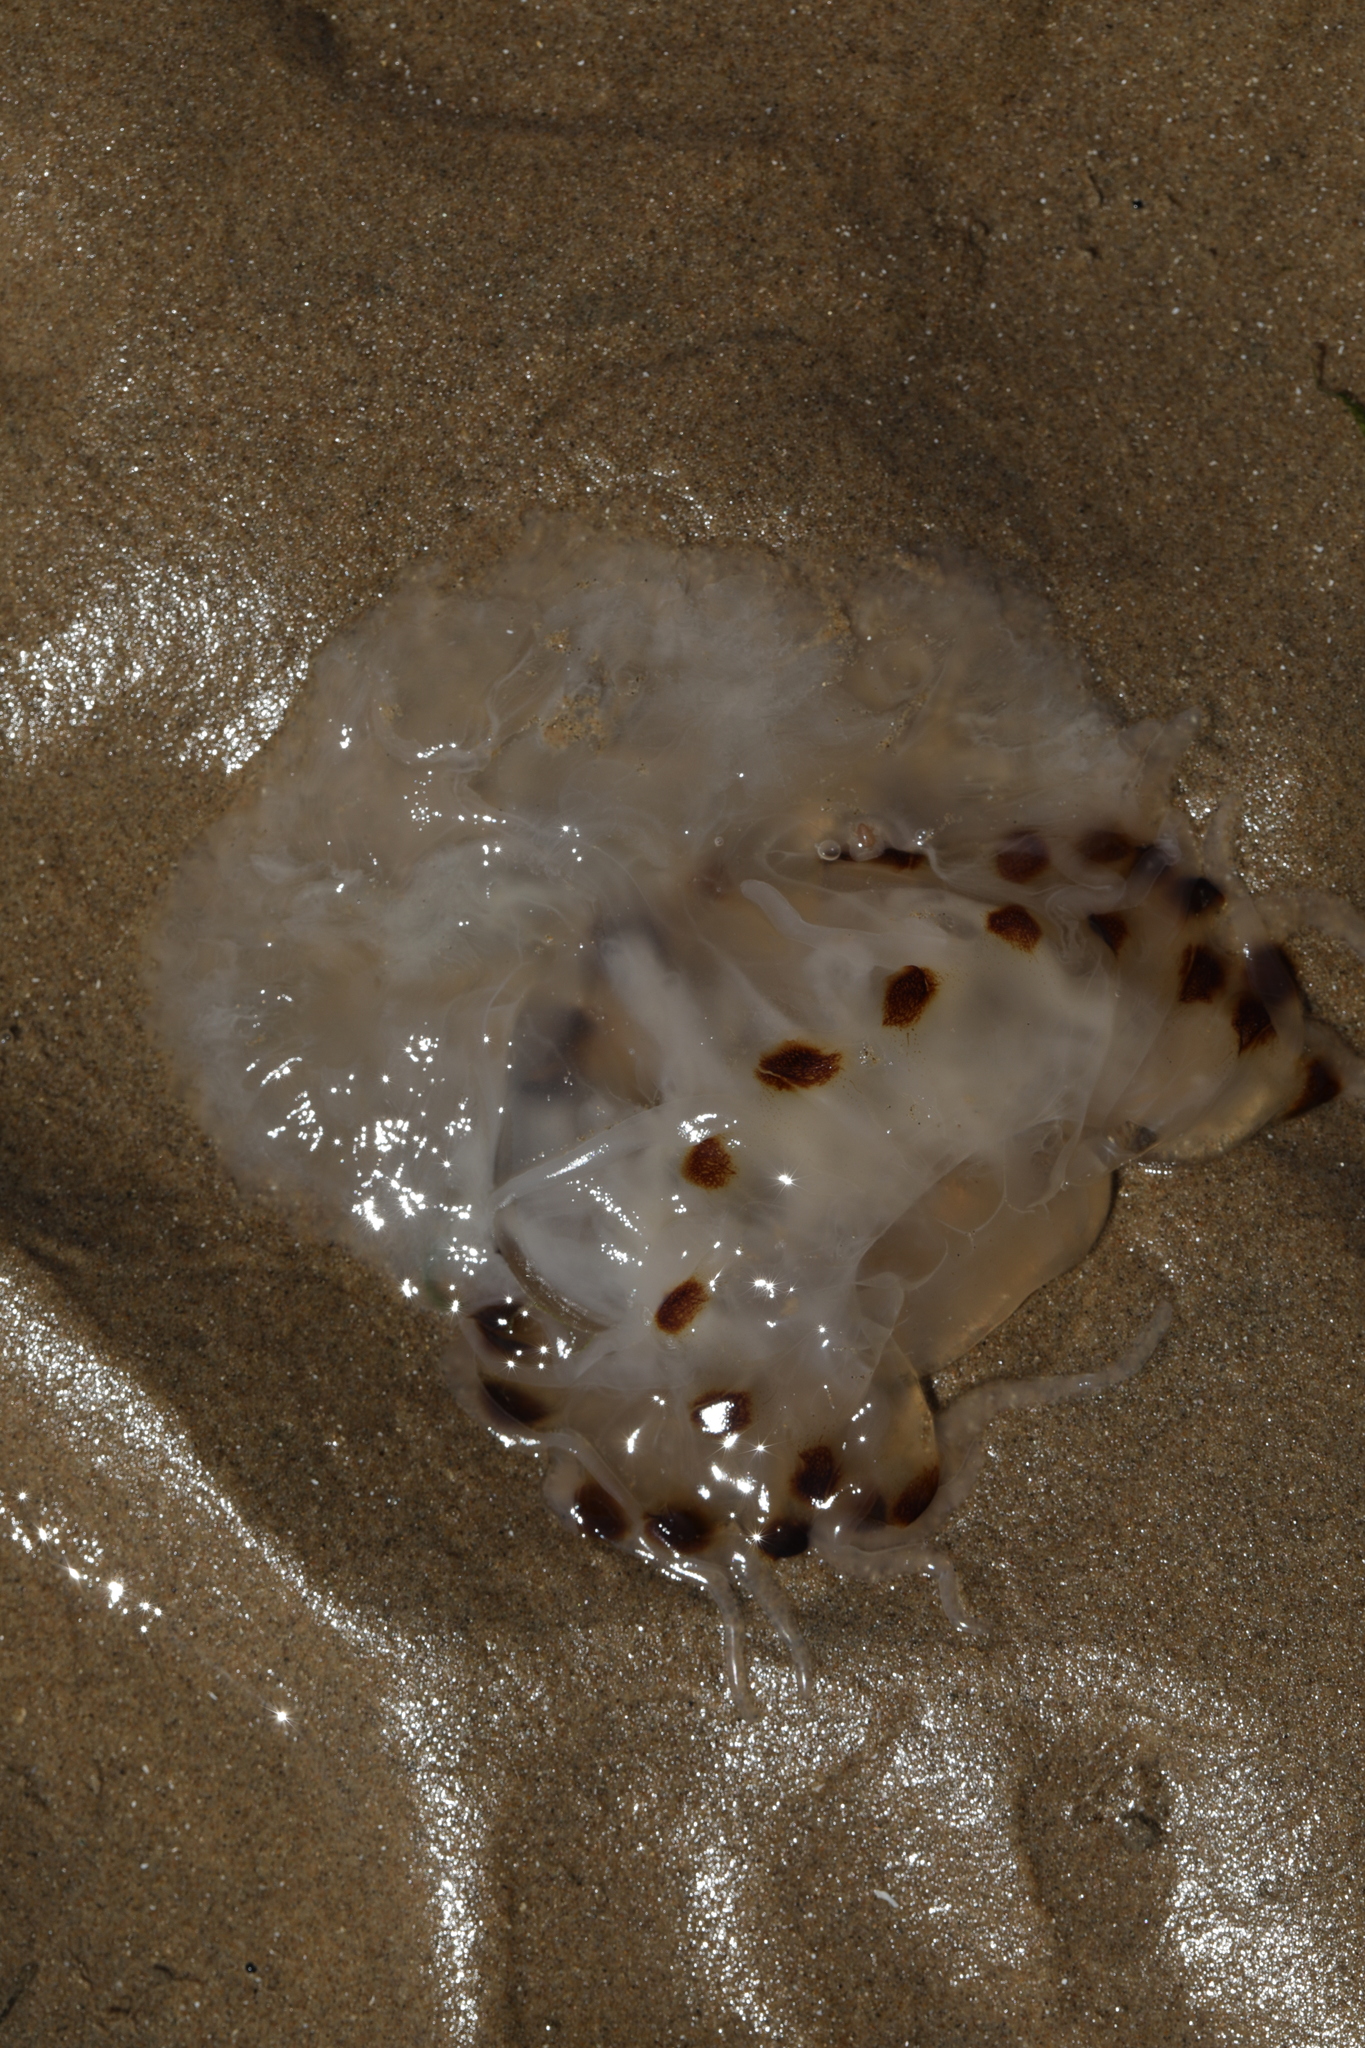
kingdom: Animalia
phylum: Cnidaria
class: Scyphozoa
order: Semaeostomeae
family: Pelagiidae
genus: Chrysaora
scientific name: Chrysaora hysoscella
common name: Compass jellyfish
